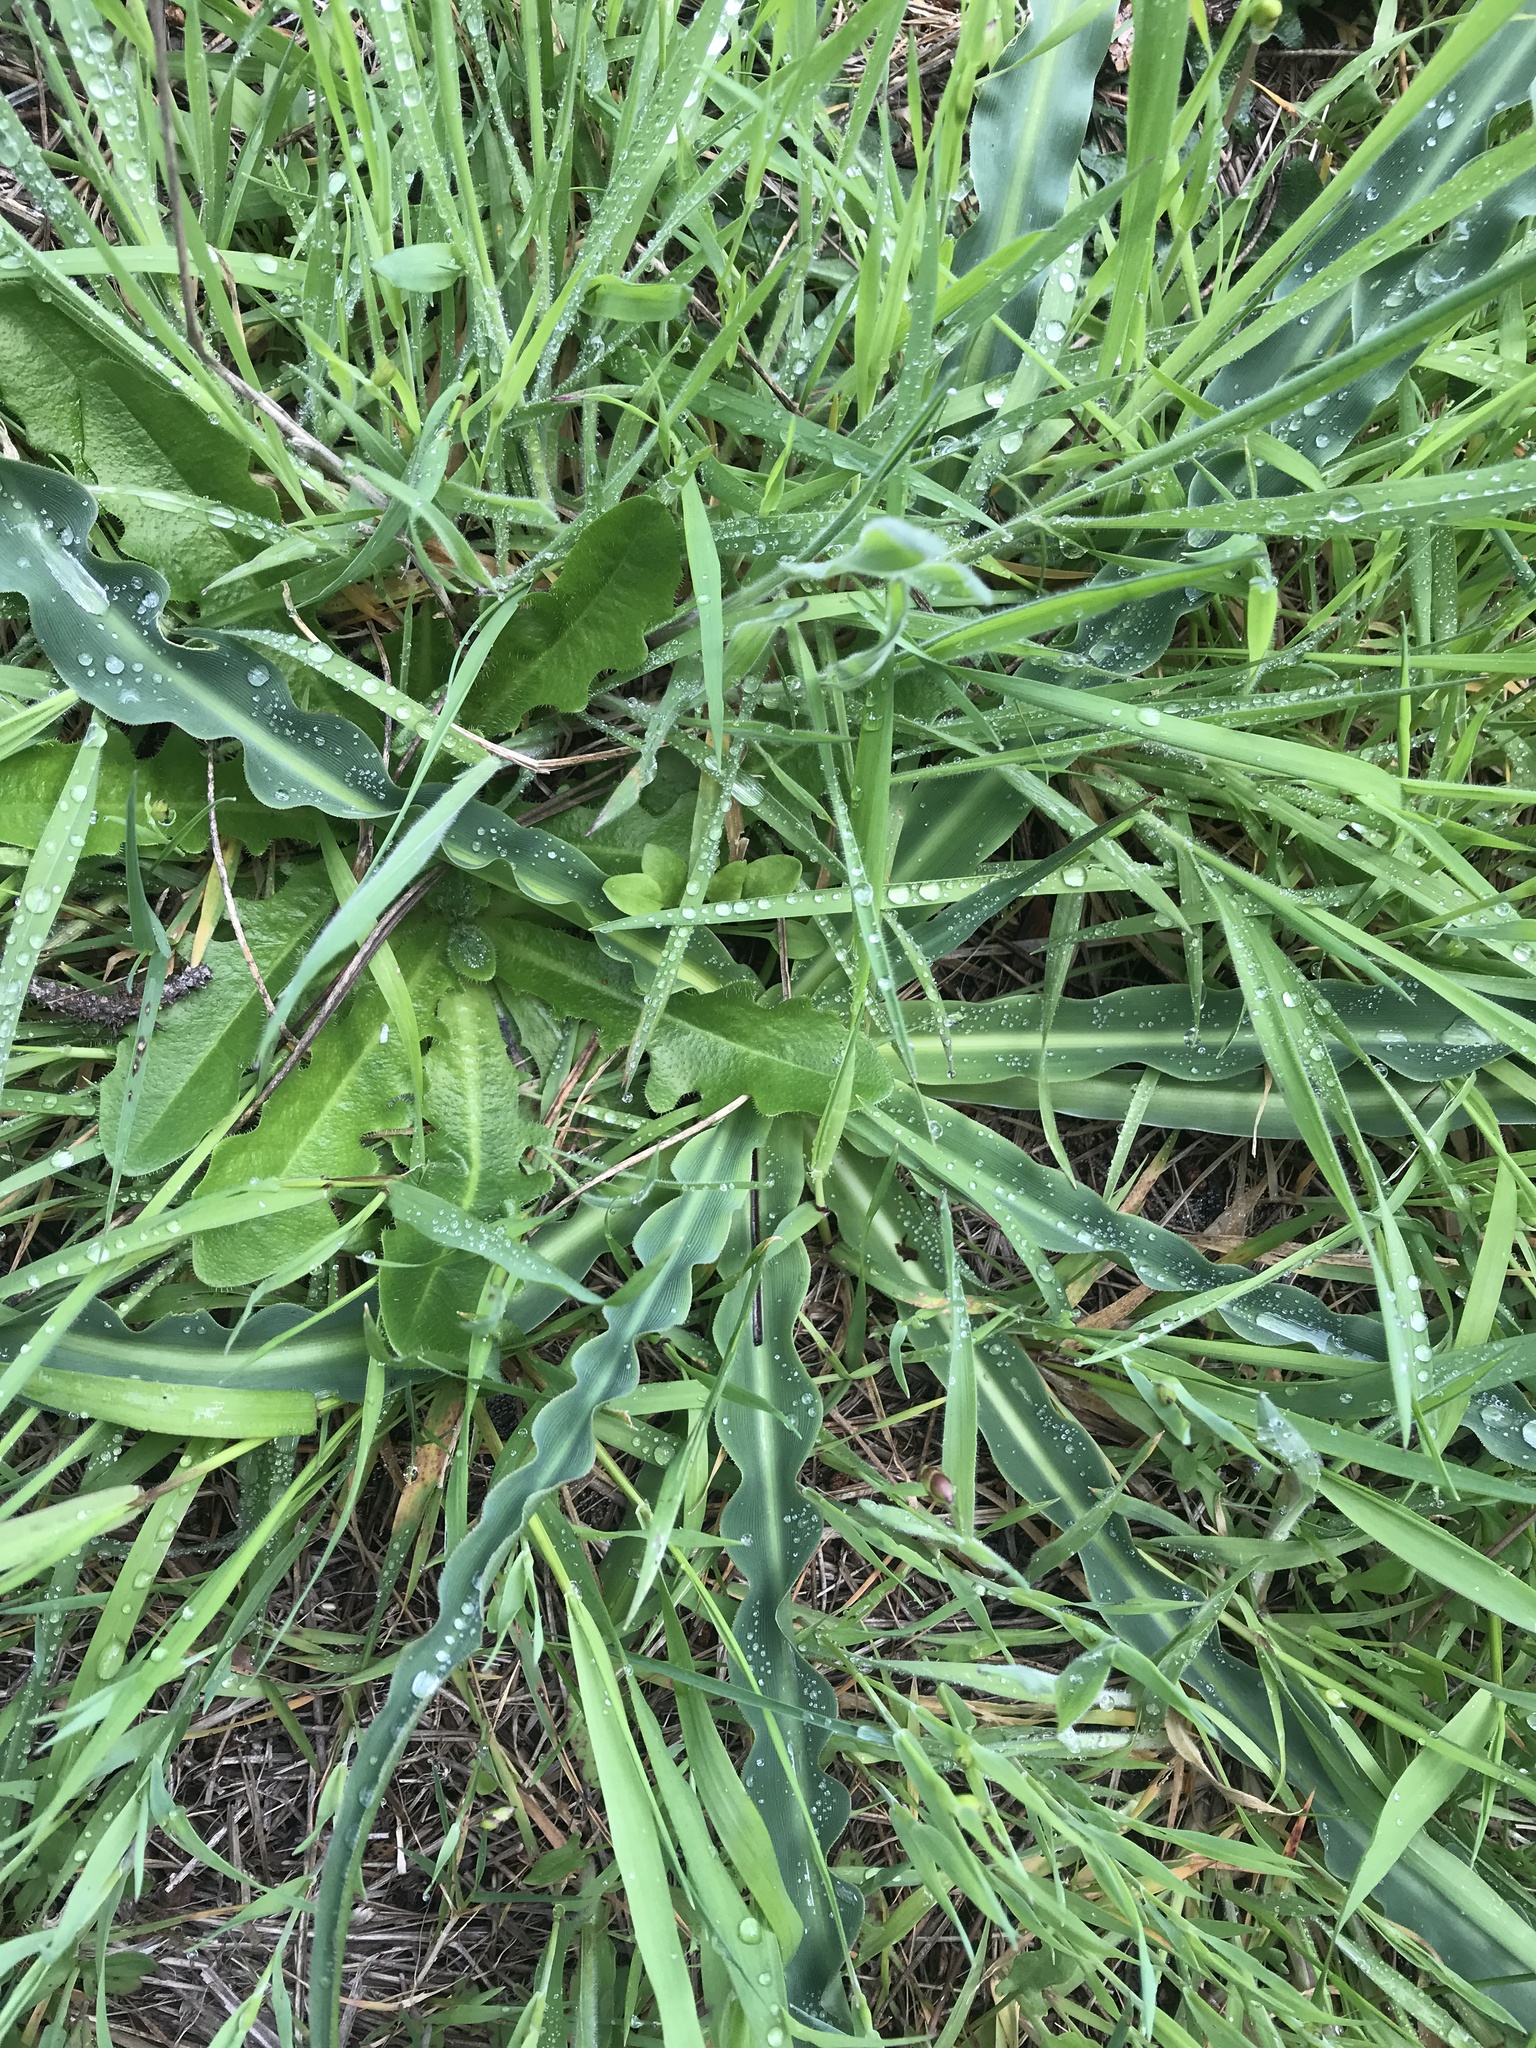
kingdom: Plantae
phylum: Tracheophyta
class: Liliopsida
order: Asparagales
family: Asparagaceae
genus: Chlorogalum
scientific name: Chlorogalum pomeridianum
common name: Amole
